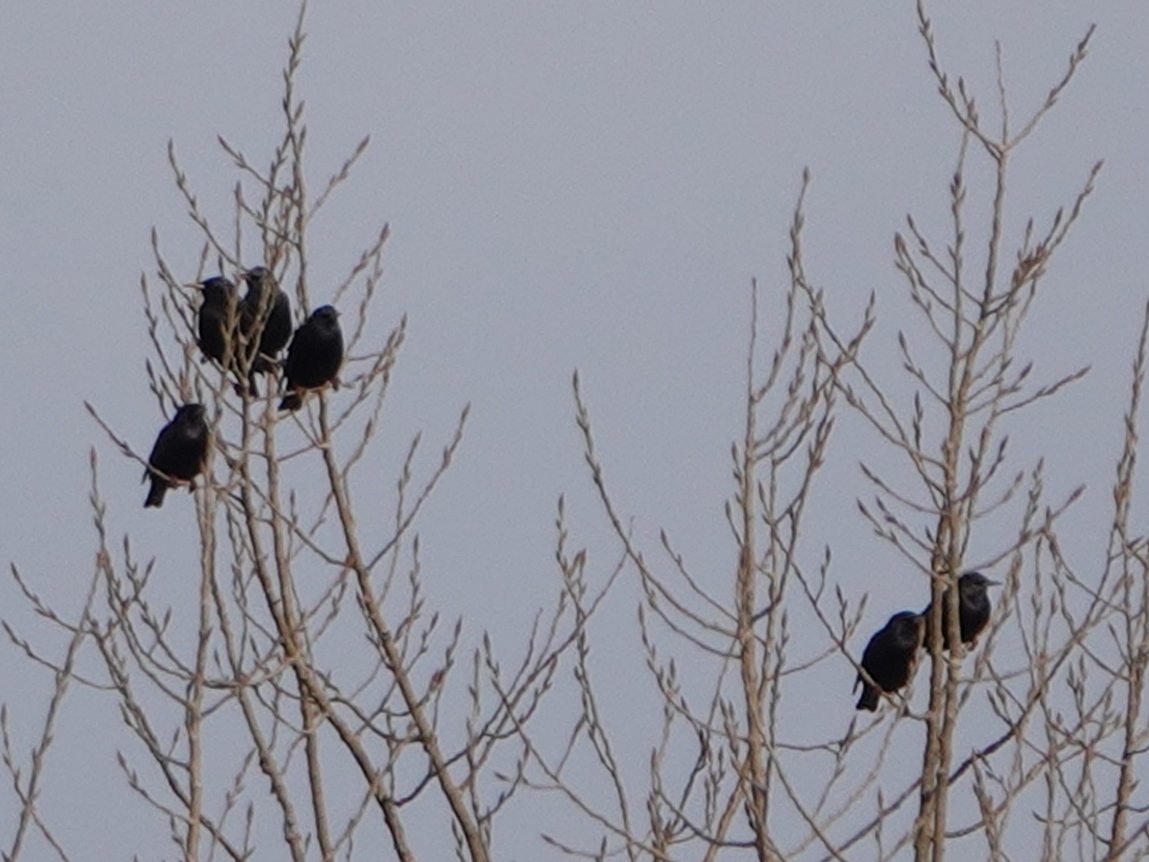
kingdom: Animalia
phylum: Chordata
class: Aves
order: Passeriformes
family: Sturnidae
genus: Sturnus
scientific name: Sturnus vulgaris
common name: Common starling
